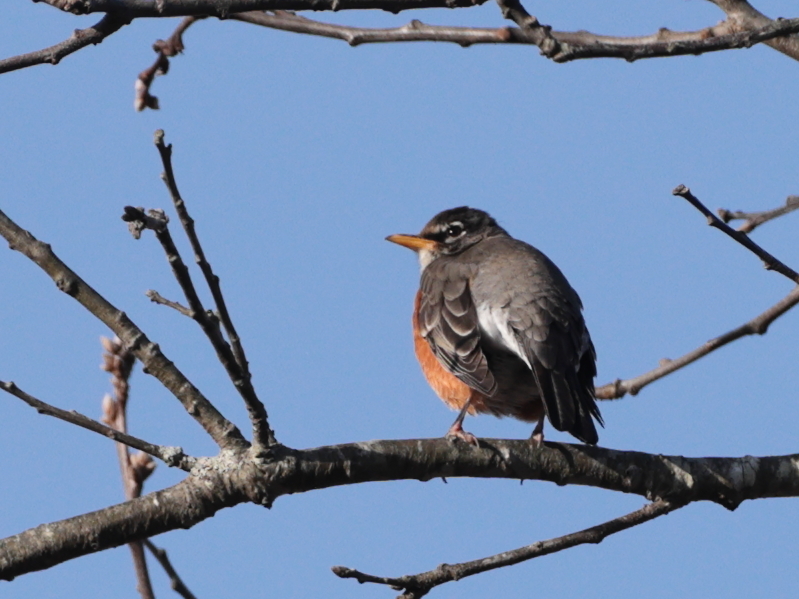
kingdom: Animalia
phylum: Chordata
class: Aves
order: Passeriformes
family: Turdidae
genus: Turdus
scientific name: Turdus migratorius
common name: American robin
